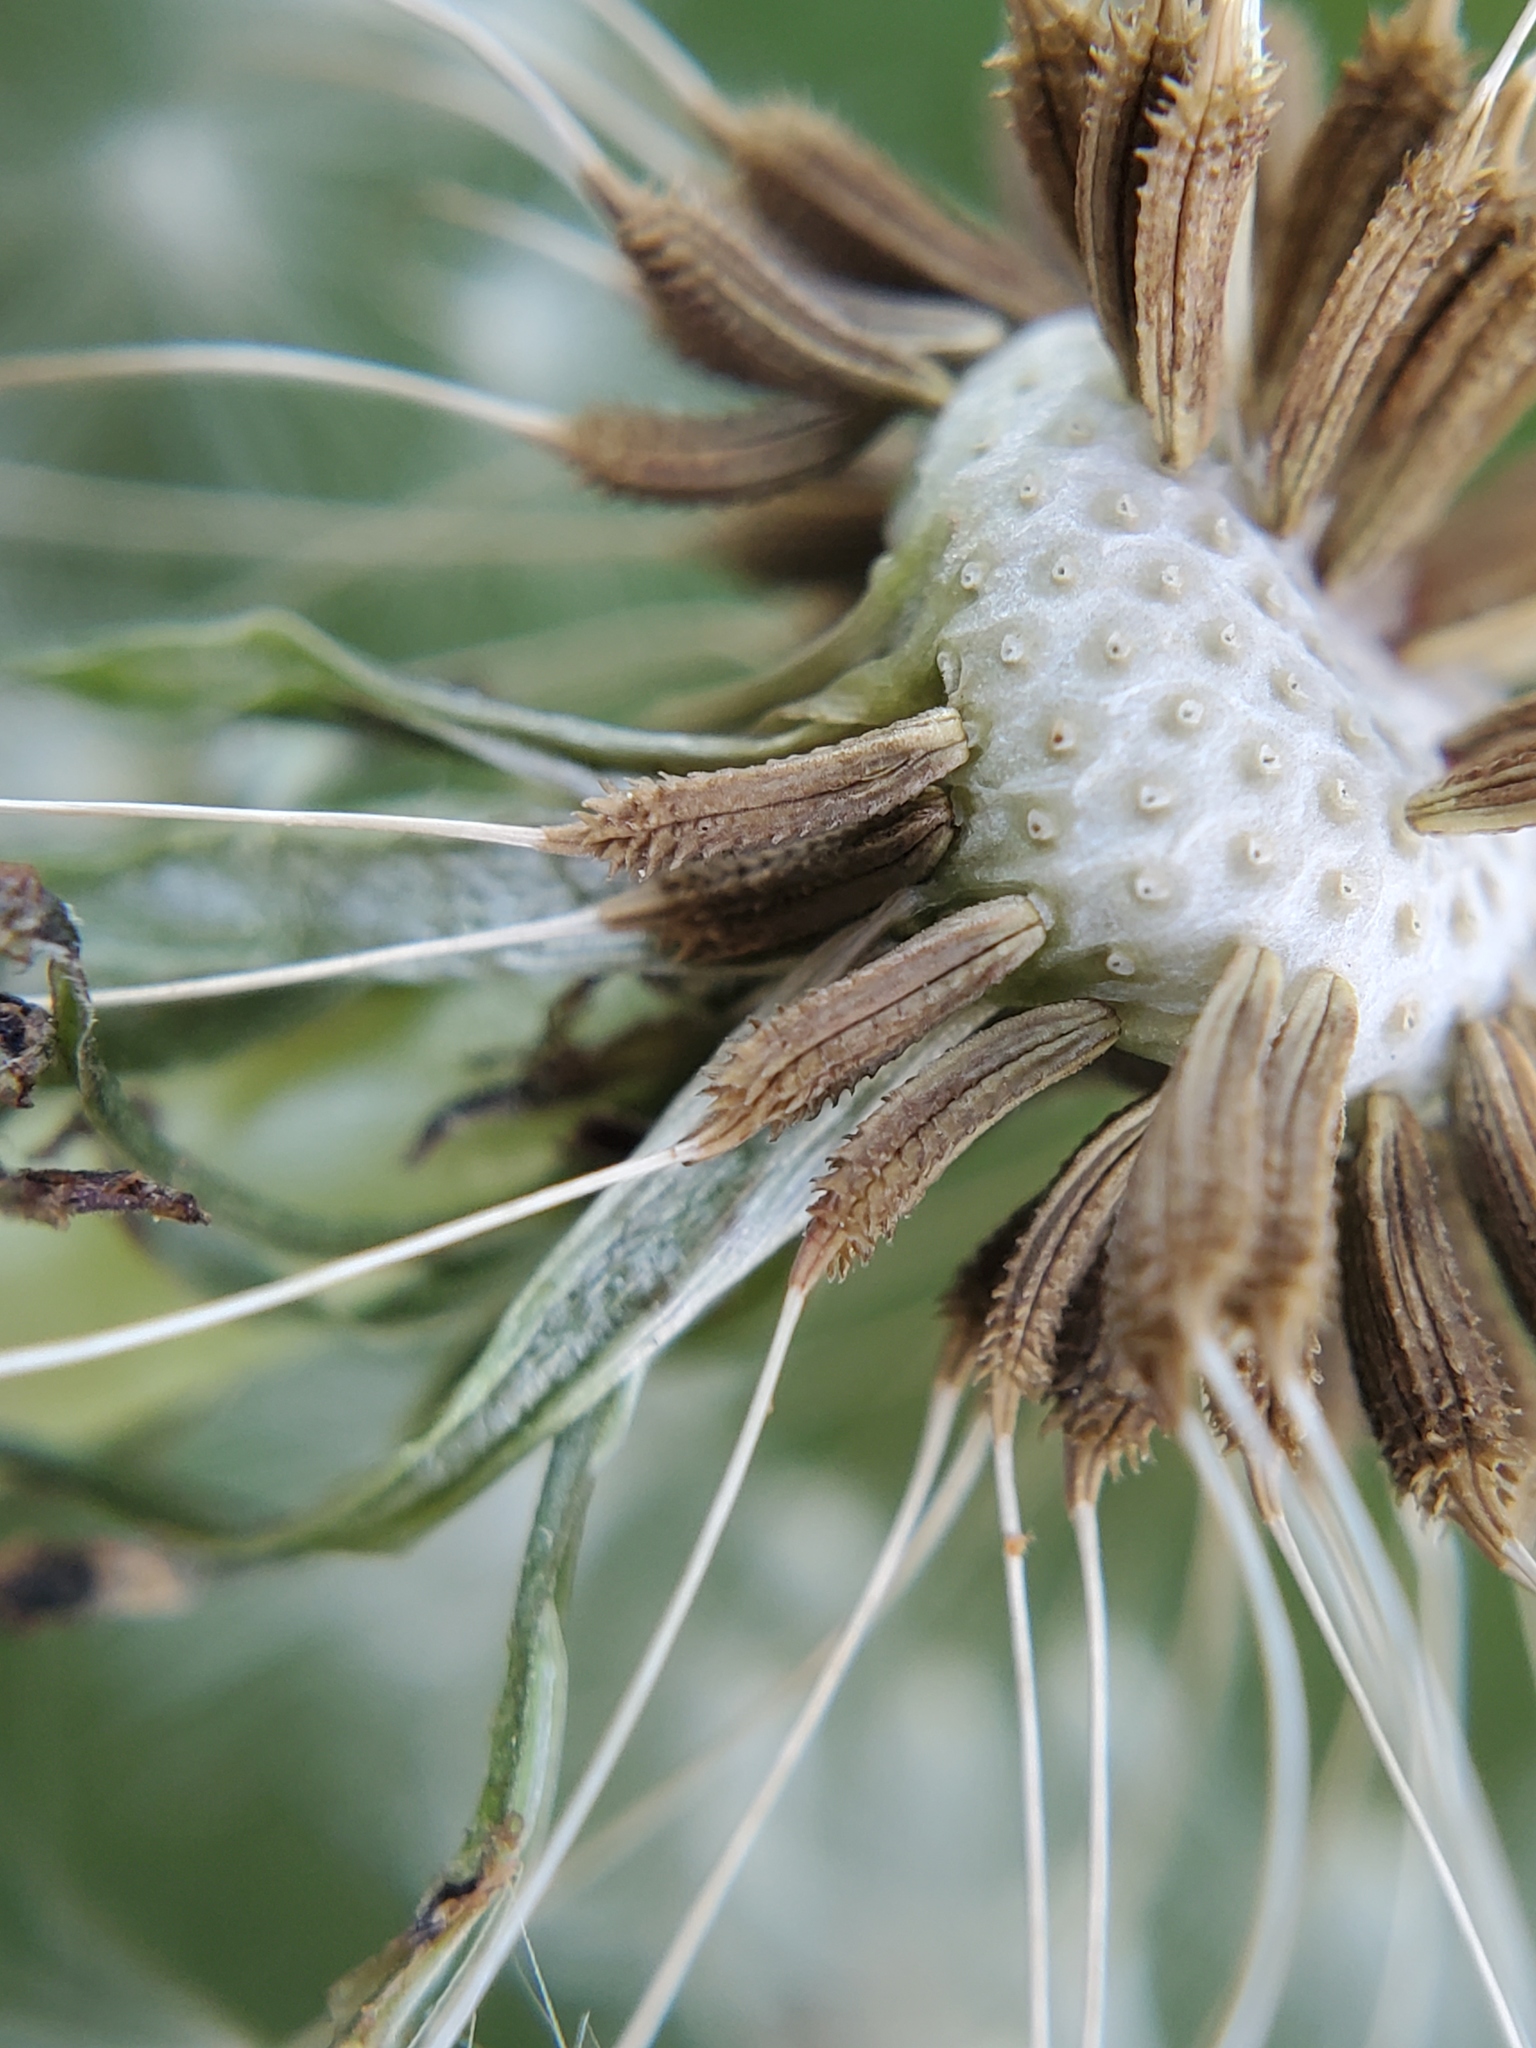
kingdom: Plantae
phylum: Tracheophyta
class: Magnoliopsida
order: Asterales
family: Asteraceae
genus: Taraxacum
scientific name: Taraxacum officinale
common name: Common dandelion
